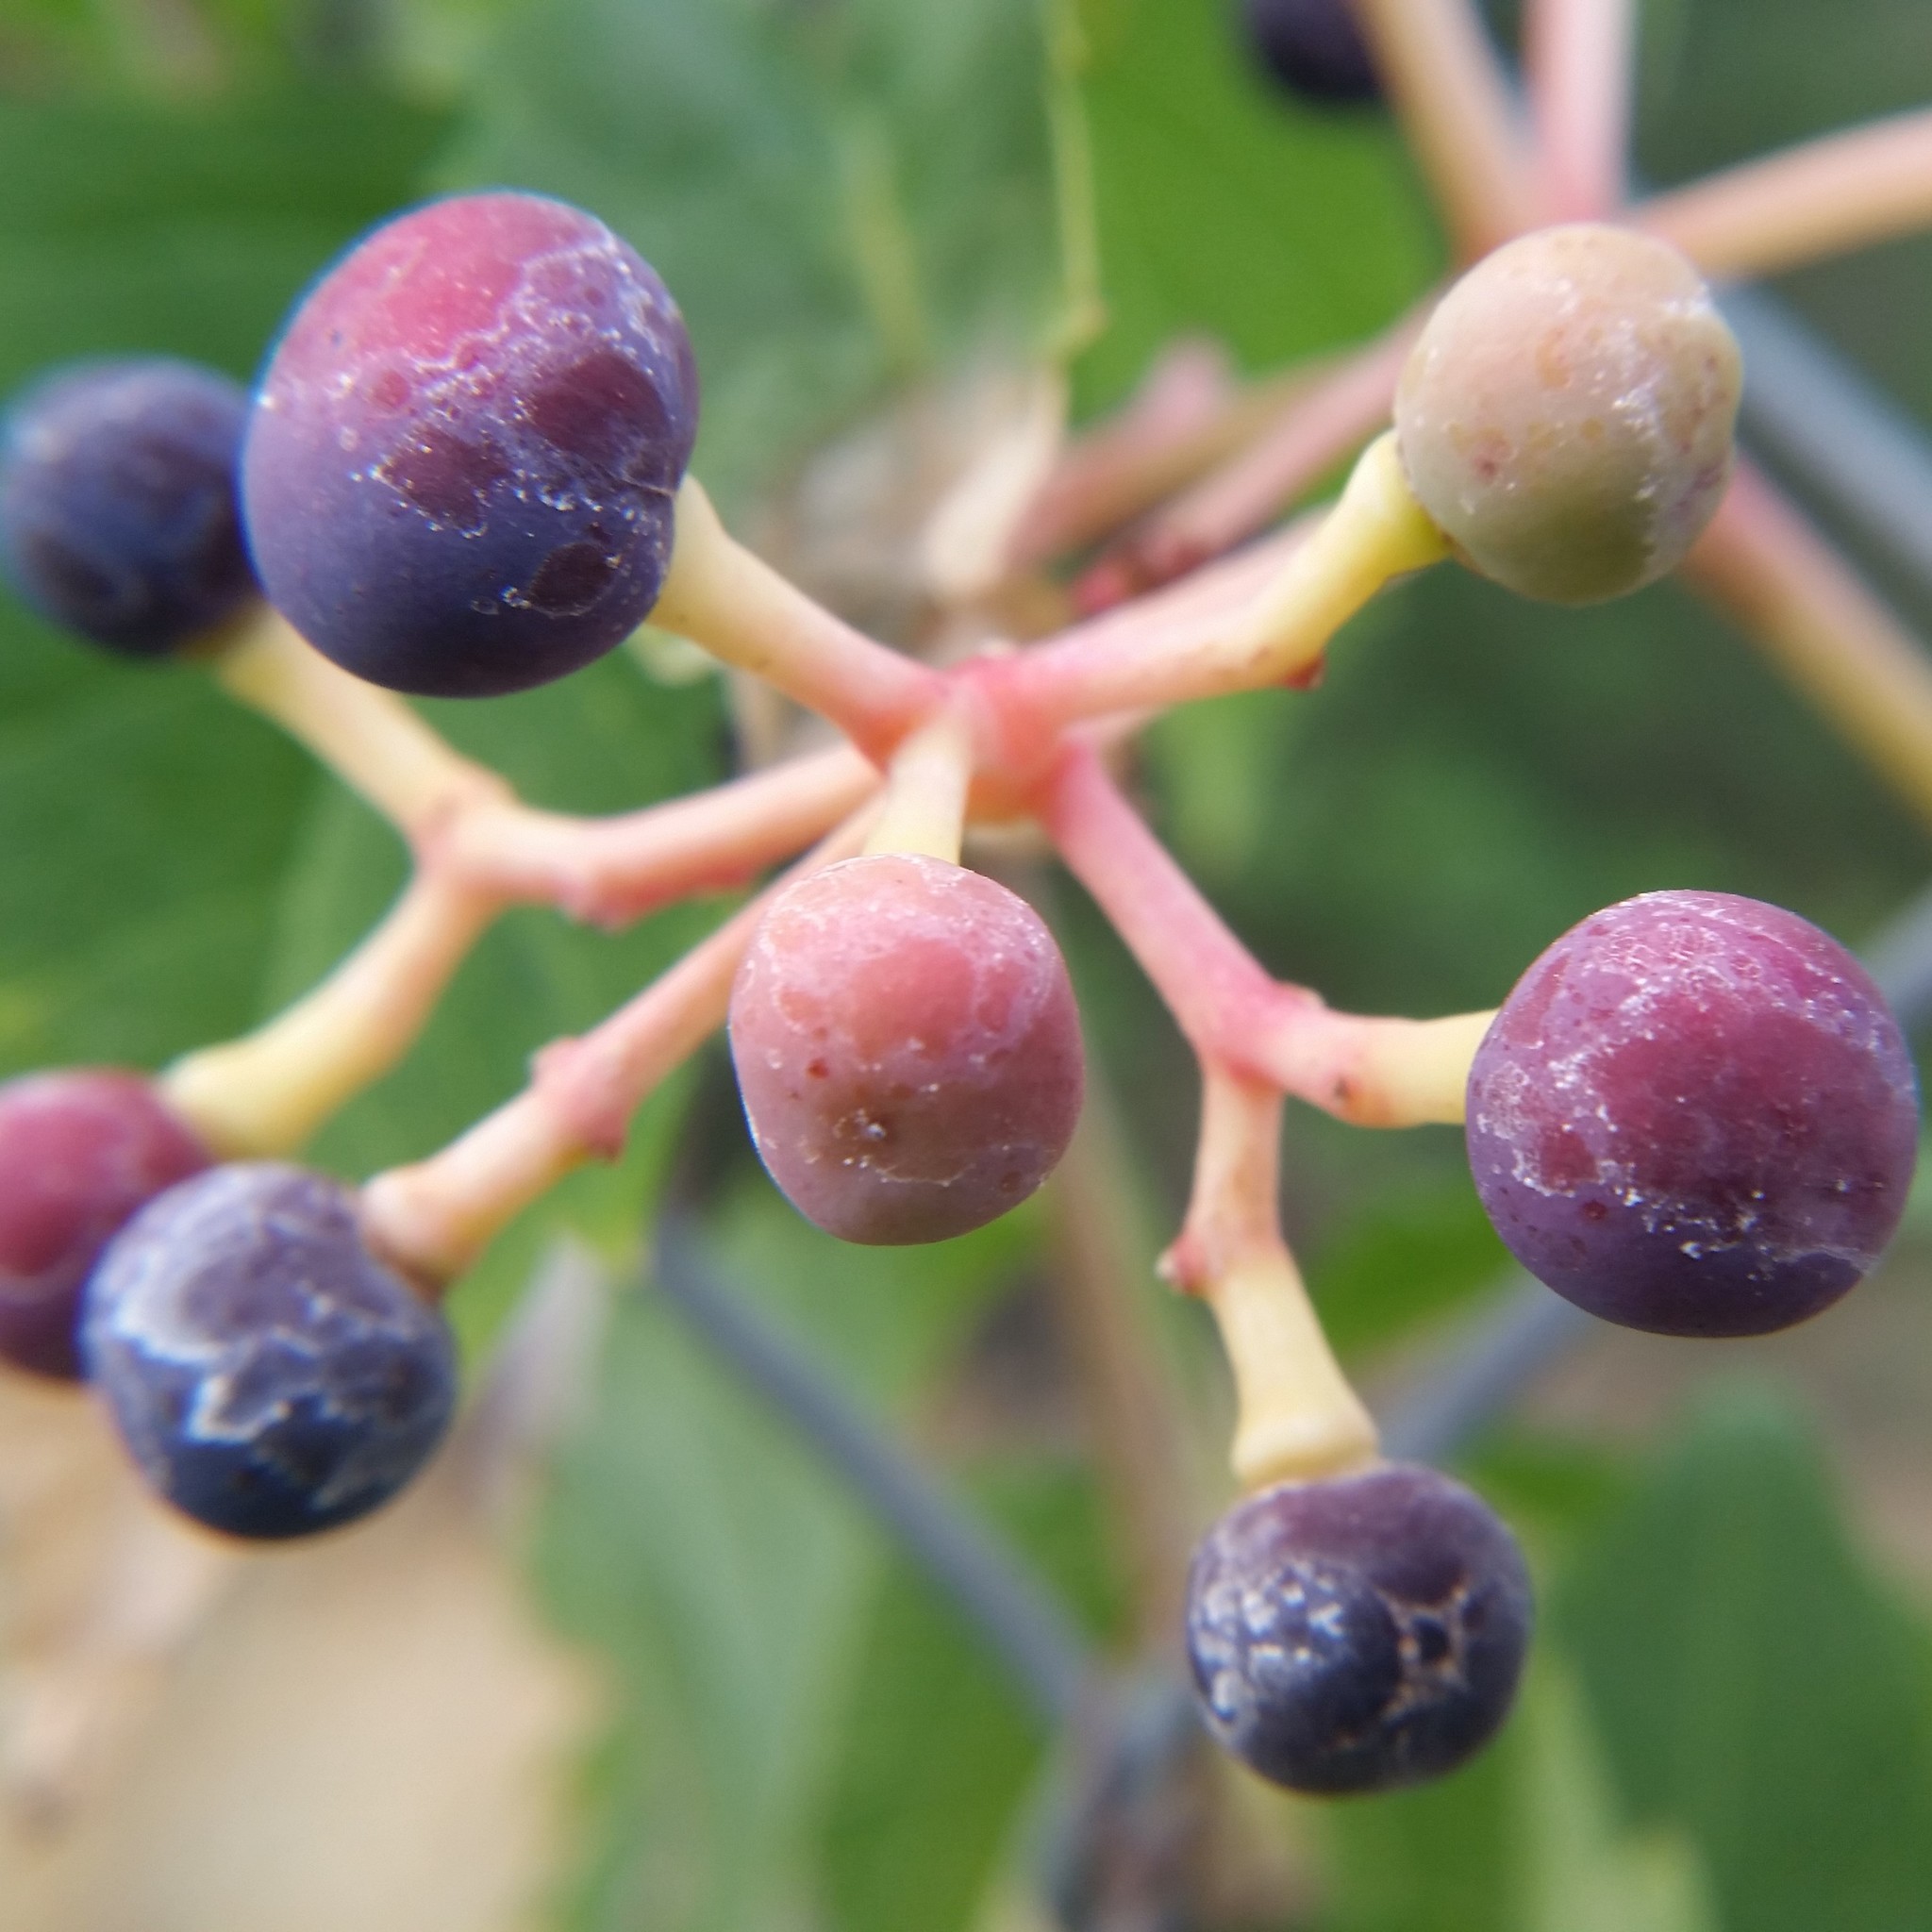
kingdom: Plantae
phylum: Tracheophyta
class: Magnoliopsida
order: Vitales
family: Vitaceae
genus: Parthenocissus
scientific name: Parthenocissus quinquefolia
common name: Virginia-creeper
